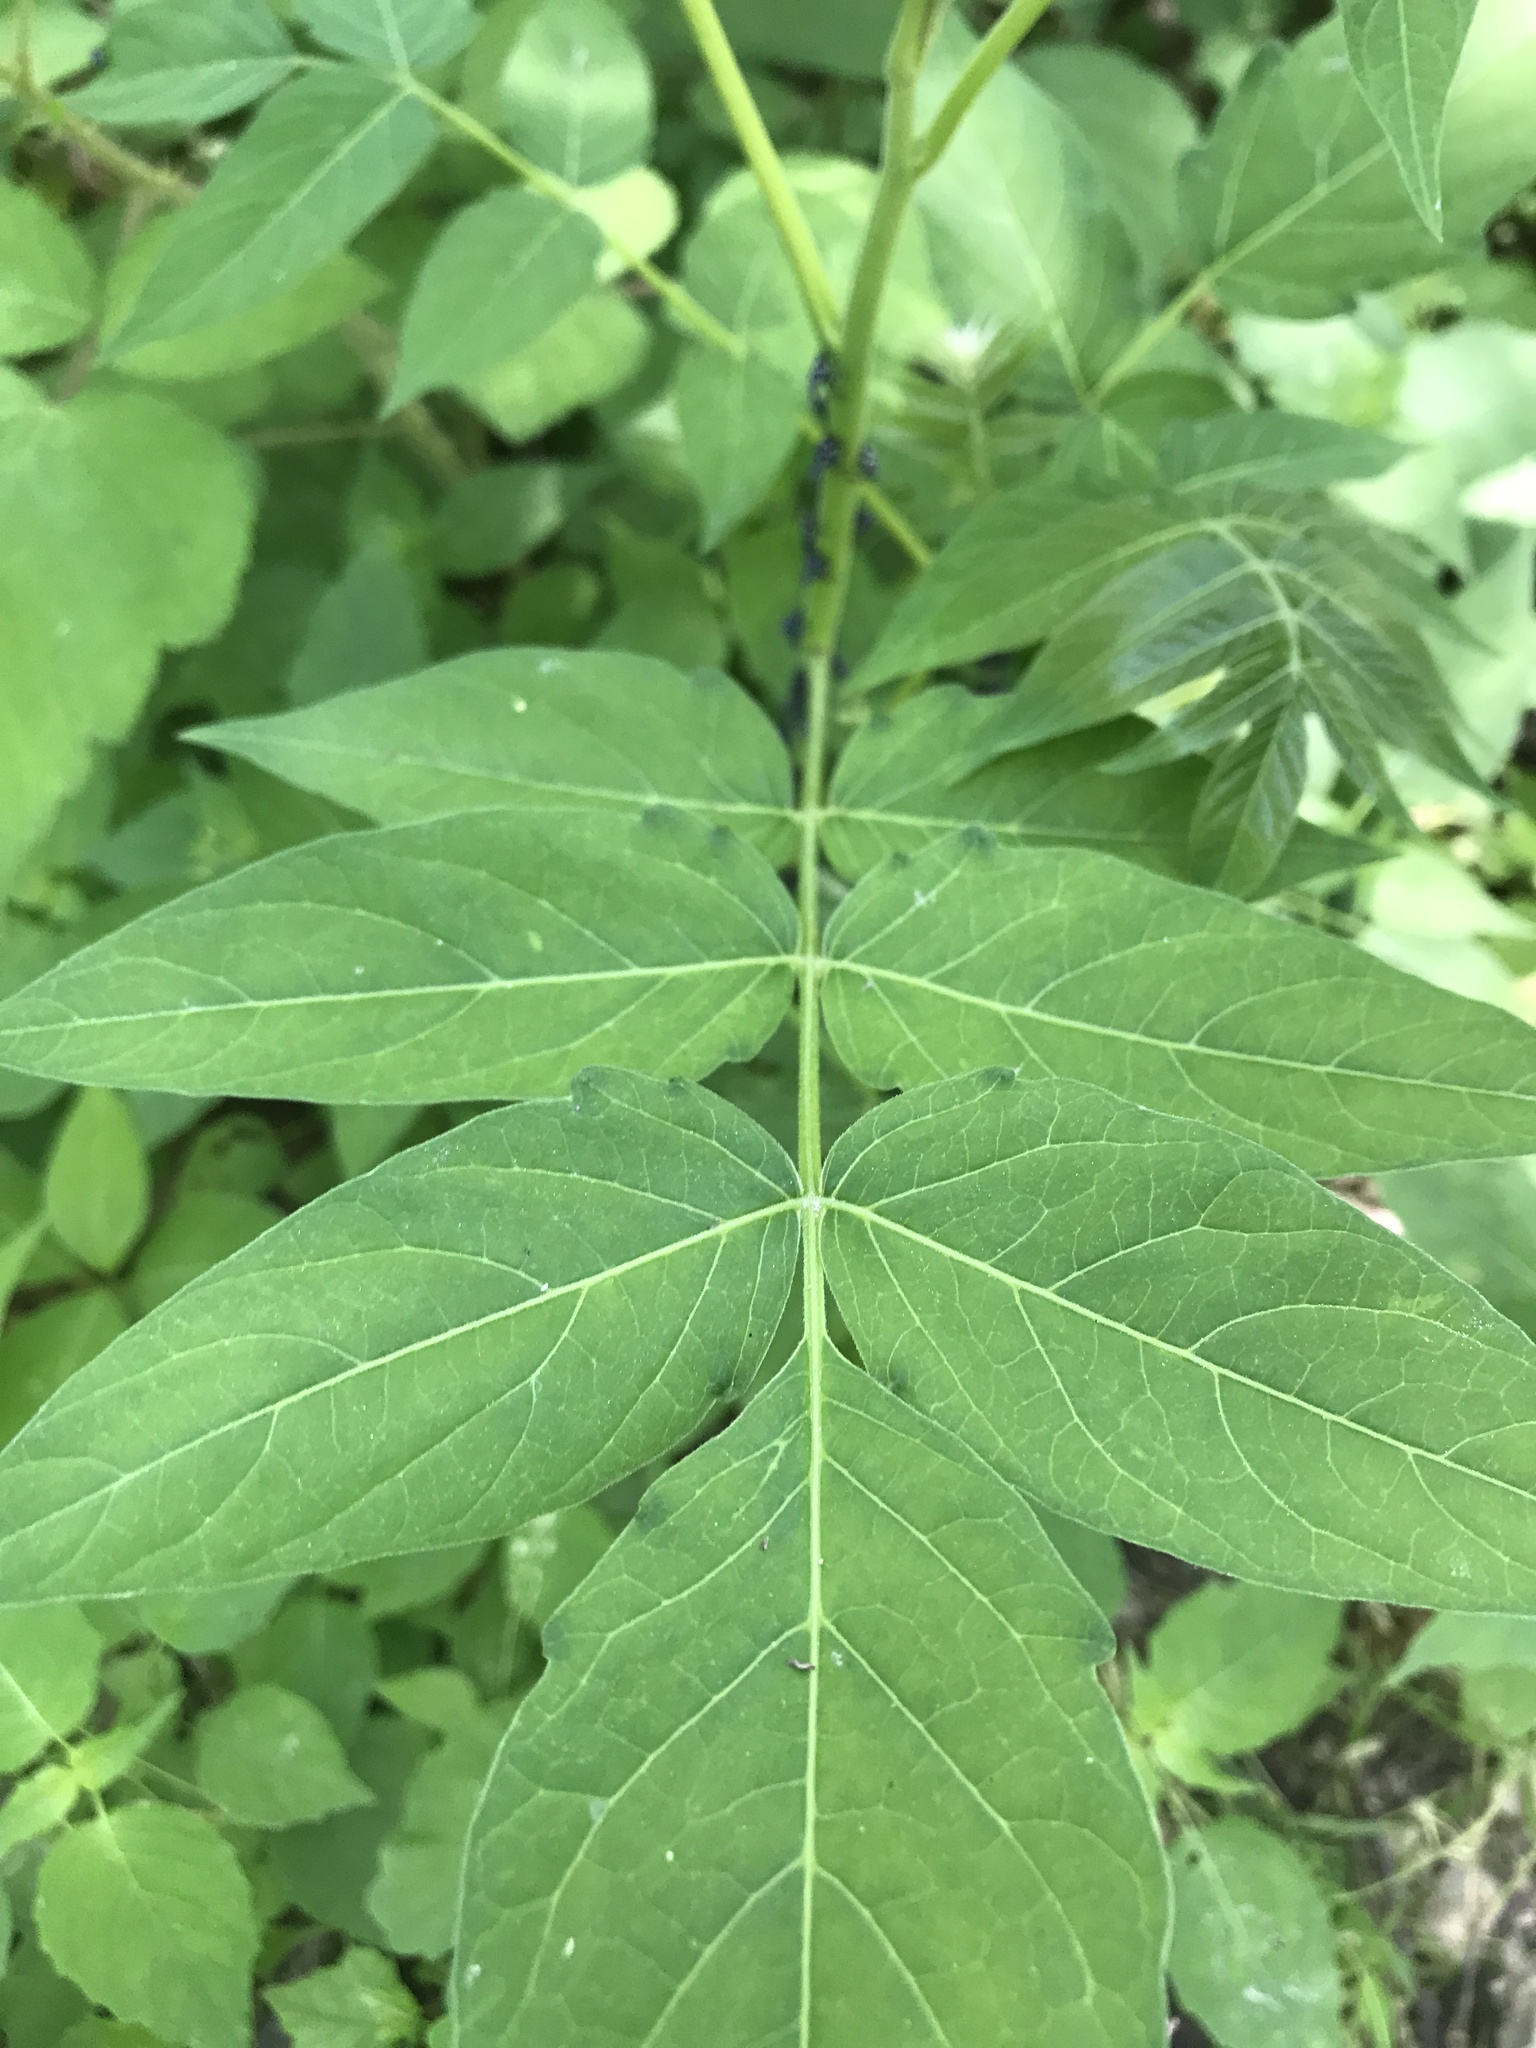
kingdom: Plantae
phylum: Tracheophyta
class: Magnoliopsida
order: Sapindales
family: Simaroubaceae
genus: Ailanthus
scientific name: Ailanthus altissima
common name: Tree-of-heaven
